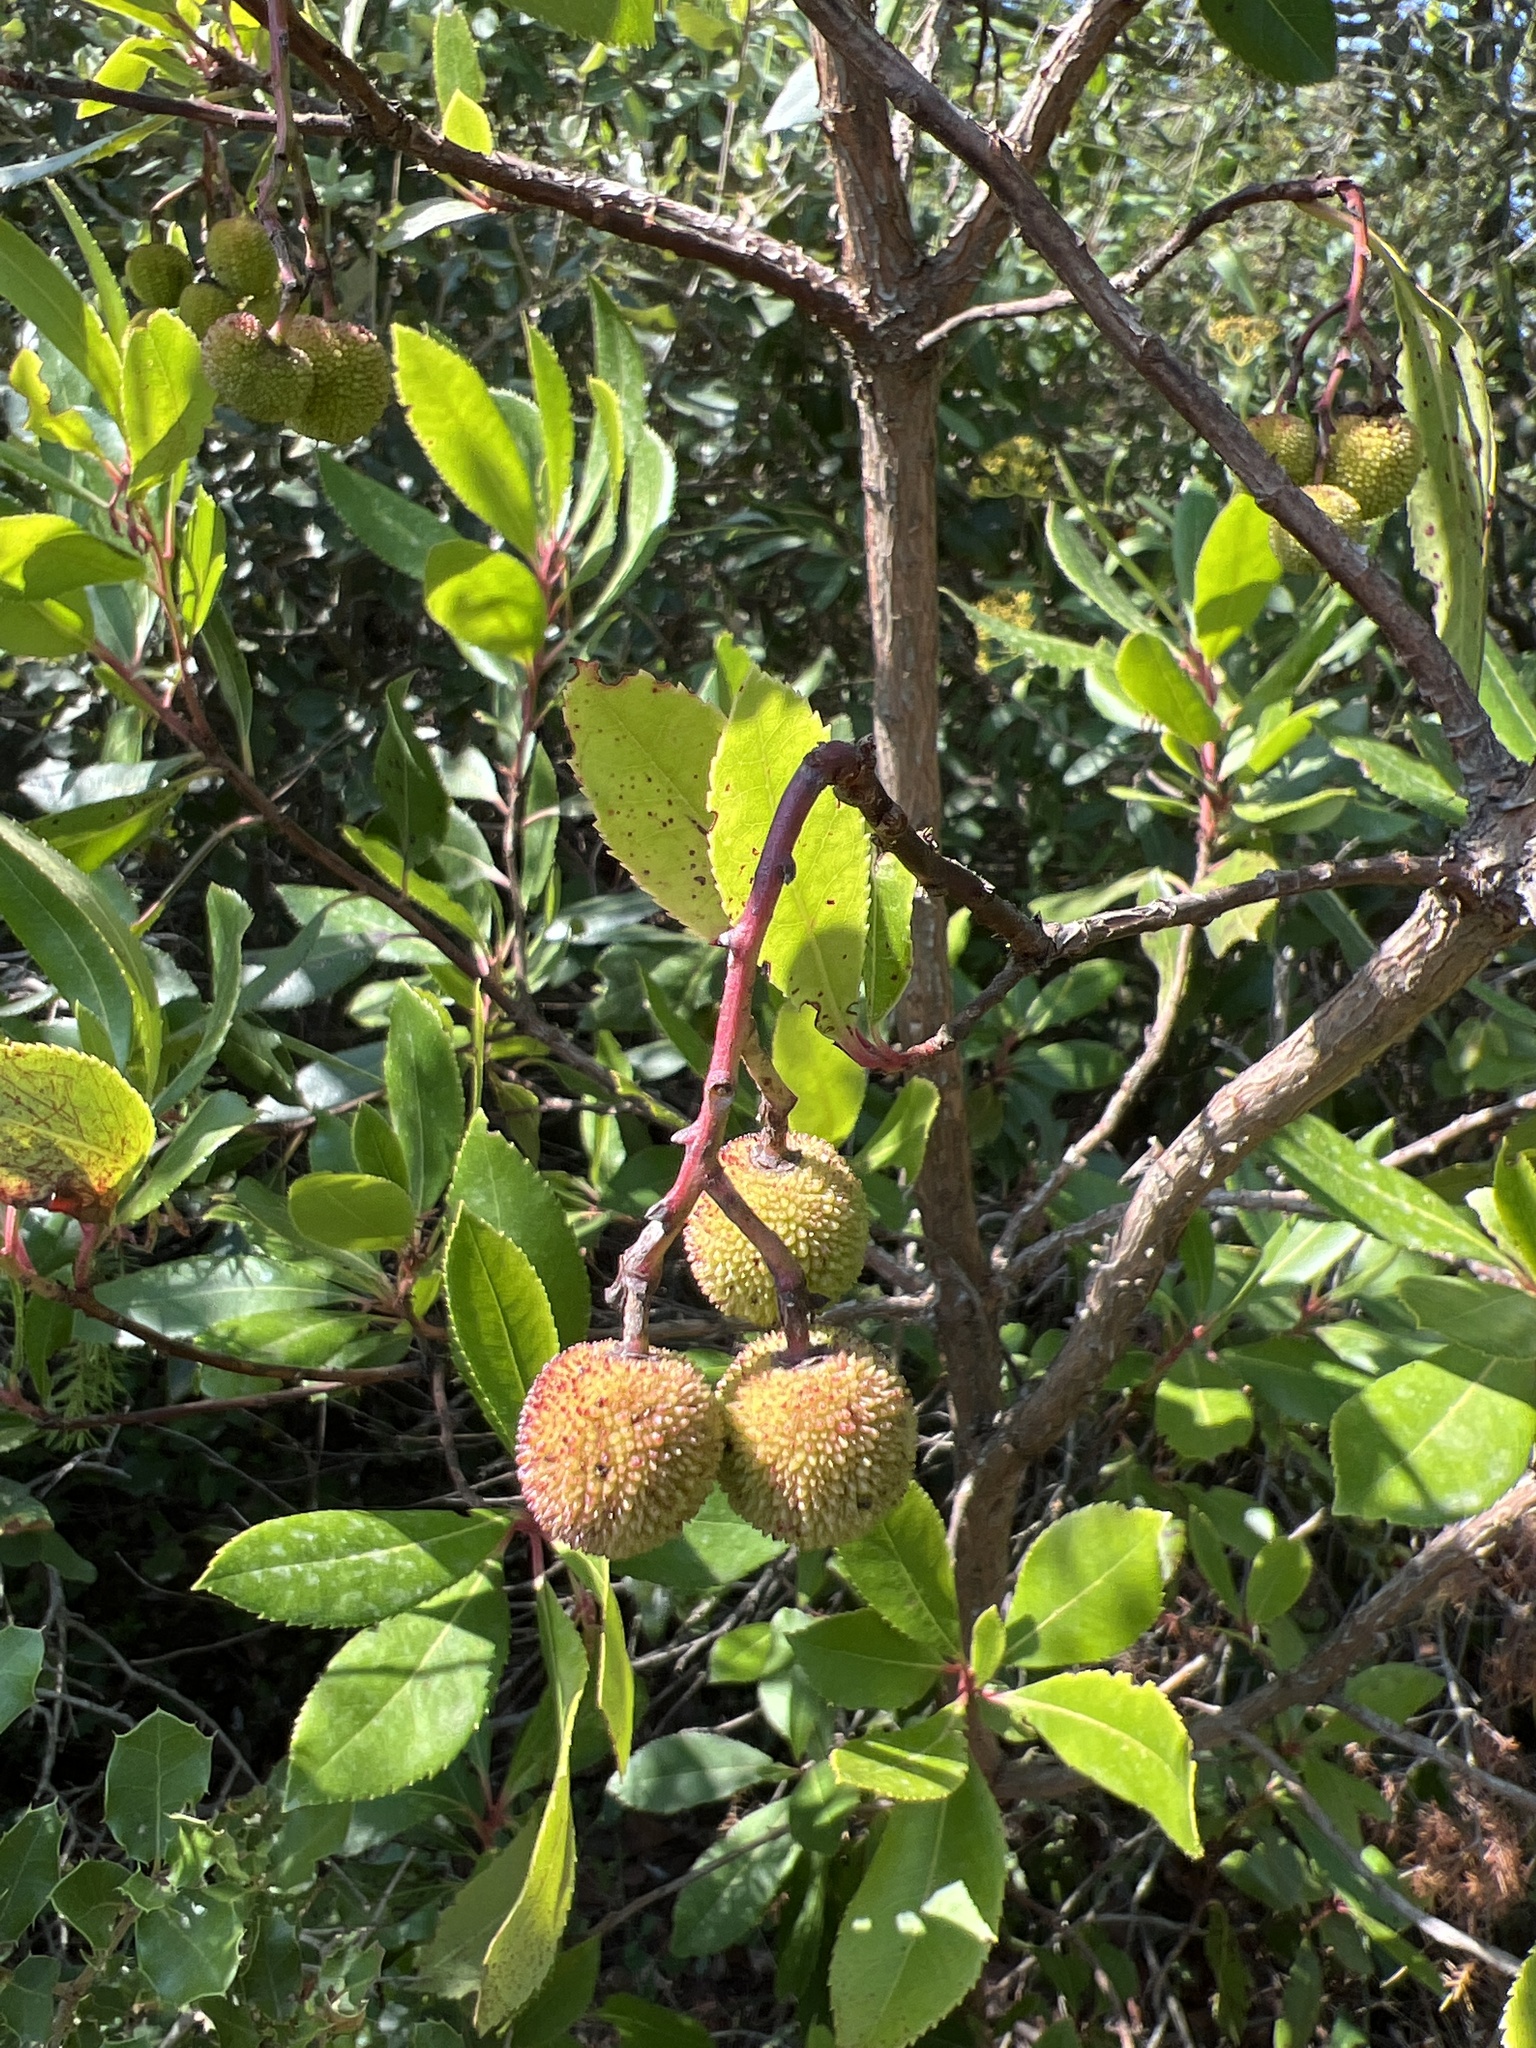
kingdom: Plantae
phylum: Tracheophyta
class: Magnoliopsida
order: Ericales
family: Ericaceae
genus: Arbutus
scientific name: Arbutus unedo
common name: Strawberry-tree
